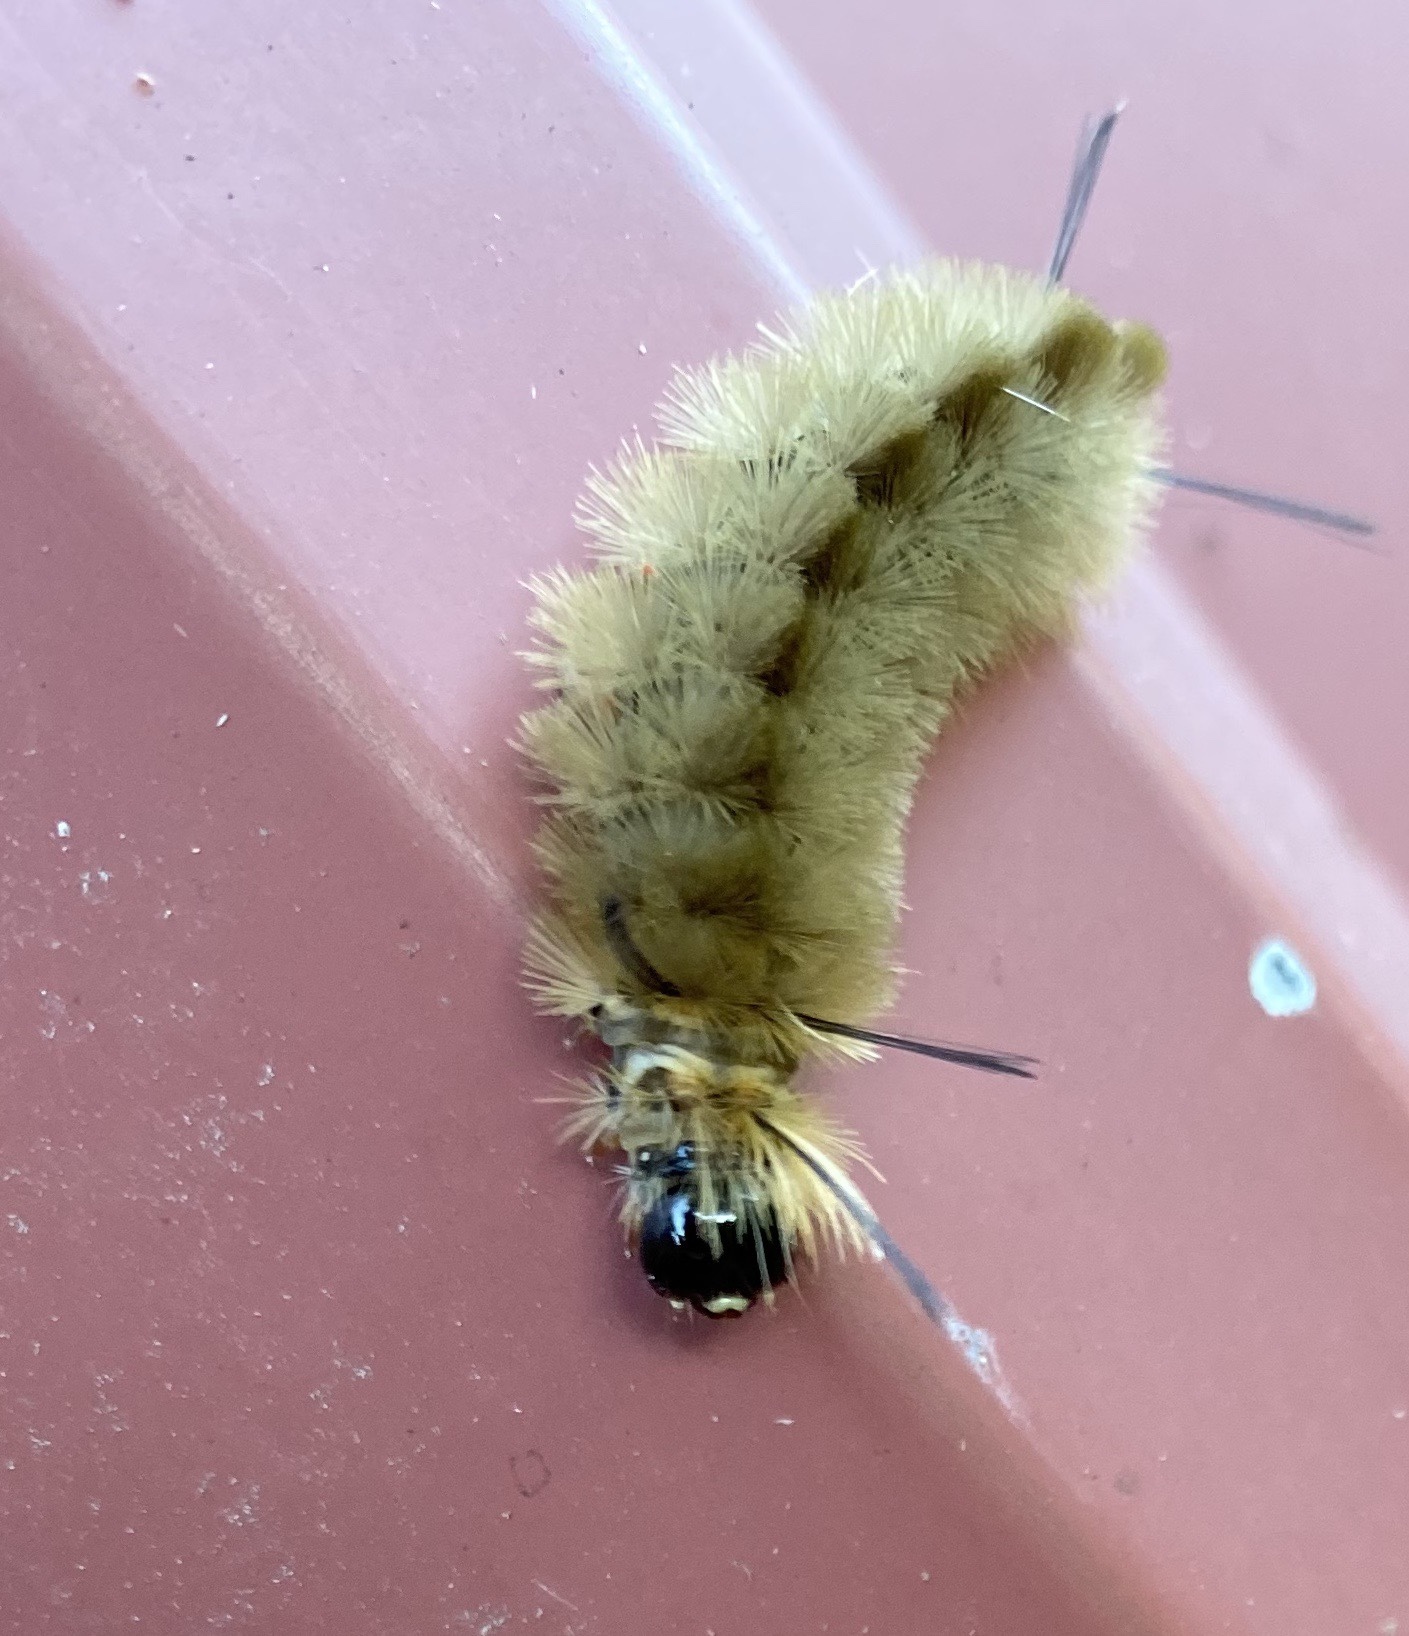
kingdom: Animalia
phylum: Arthropoda
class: Insecta
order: Lepidoptera
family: Erebidae
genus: Halysidota
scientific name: Halysidota tessellaris
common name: Banded tussock moth
